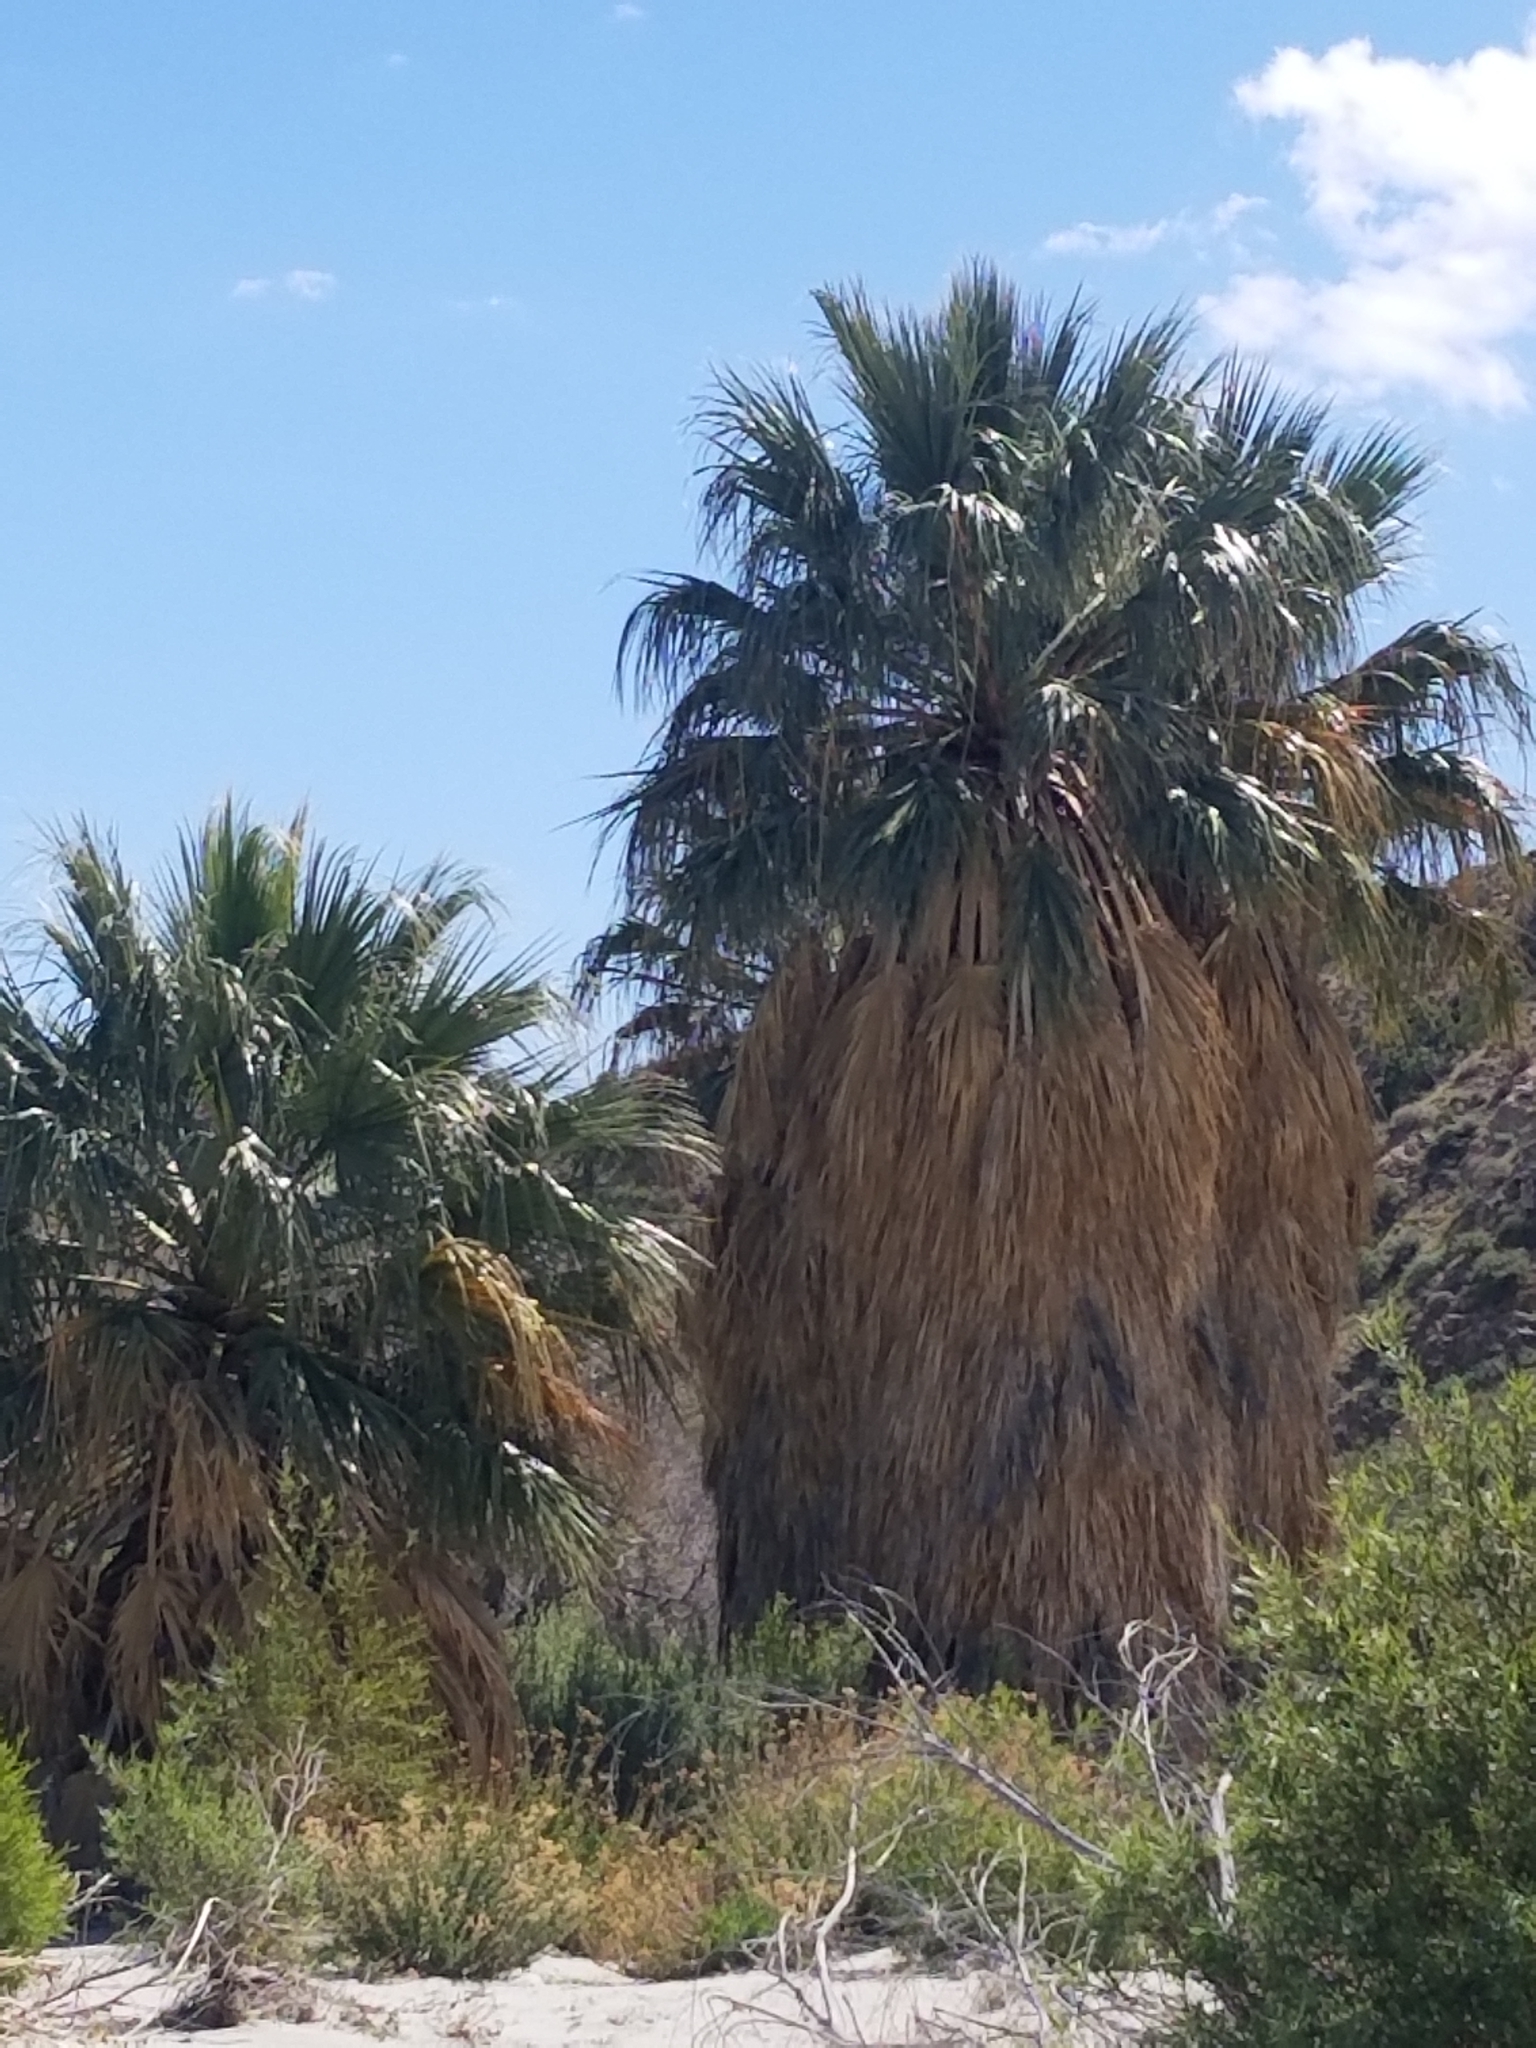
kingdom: Plantae
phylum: Tracheophyta
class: Liliopsida
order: Arecales
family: Arecaceae
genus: Washingtonia
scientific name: Washingtonia filifera
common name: California fan palm
